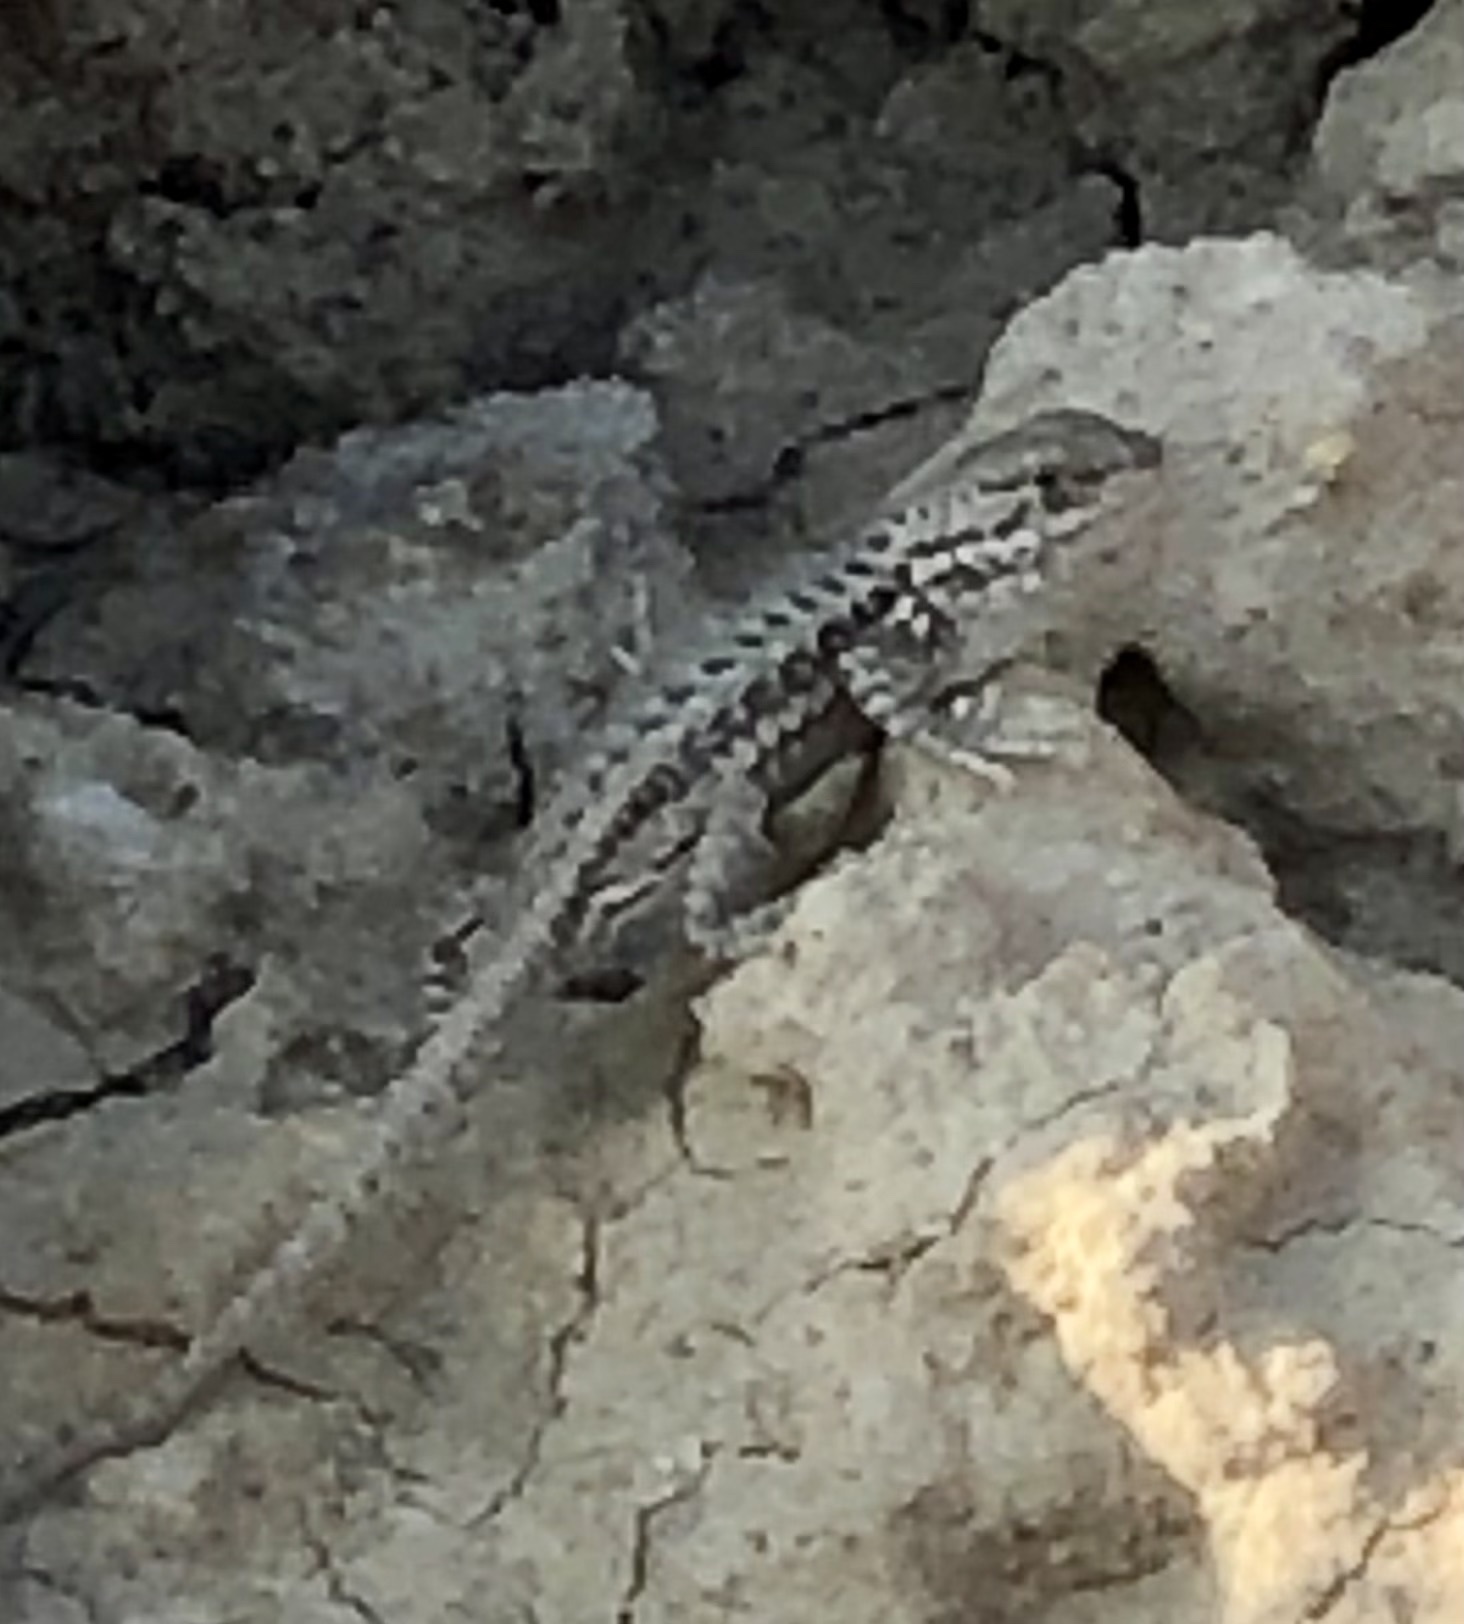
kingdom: Animalia
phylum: Chordata
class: Squamata
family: Phrynosomatidae
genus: Sceloporus
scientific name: Sceloporus graciosus
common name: Sagebrush lizard
